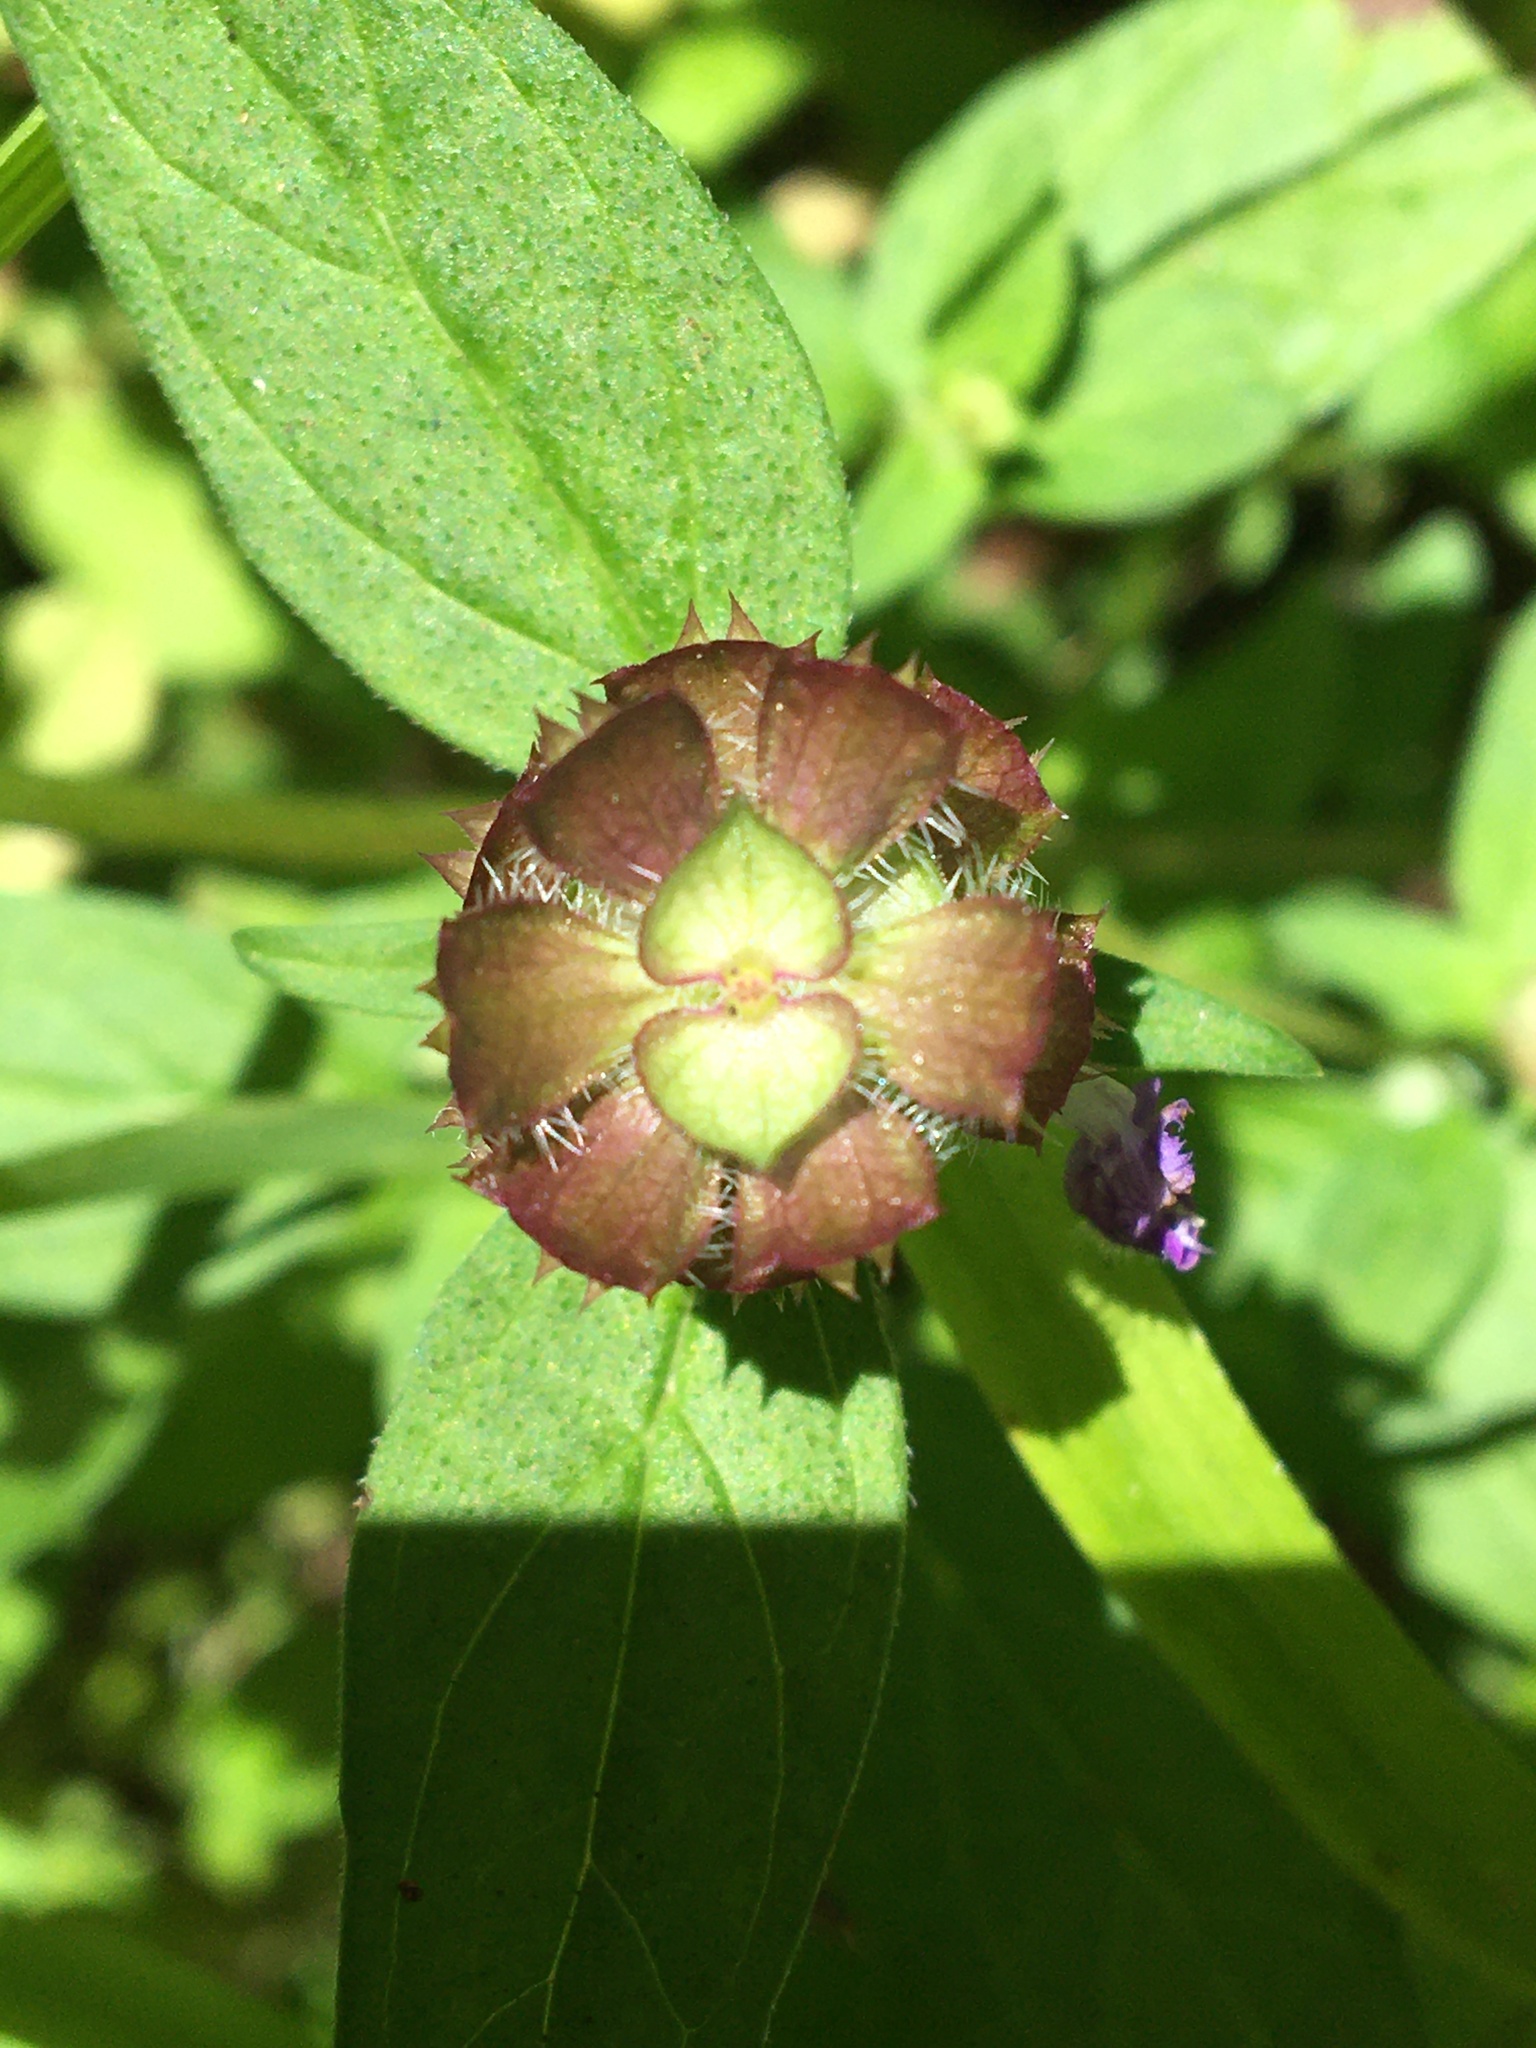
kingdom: Plantae
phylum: Tracheophyta
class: Magnoliopsida
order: Lamiales
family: Lamiaceae
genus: Prunella
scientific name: Prunella vulgaris
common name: Heal-all
